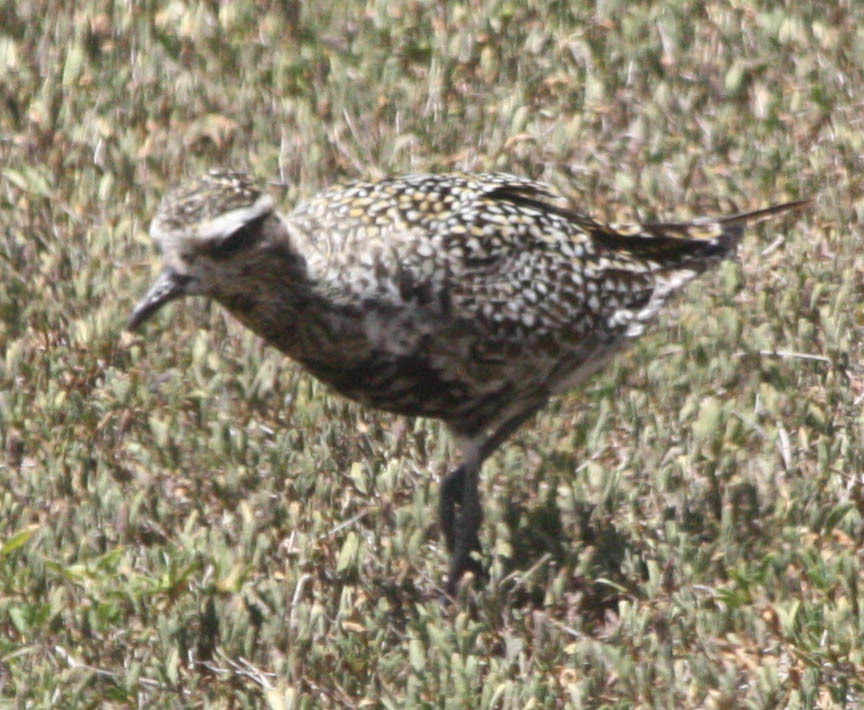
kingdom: Animalia
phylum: Chordata
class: Aves
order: Charadriiformes
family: Charadriidae
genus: Pluvialis
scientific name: Pluvialis fulva
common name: Pacific golden plover
